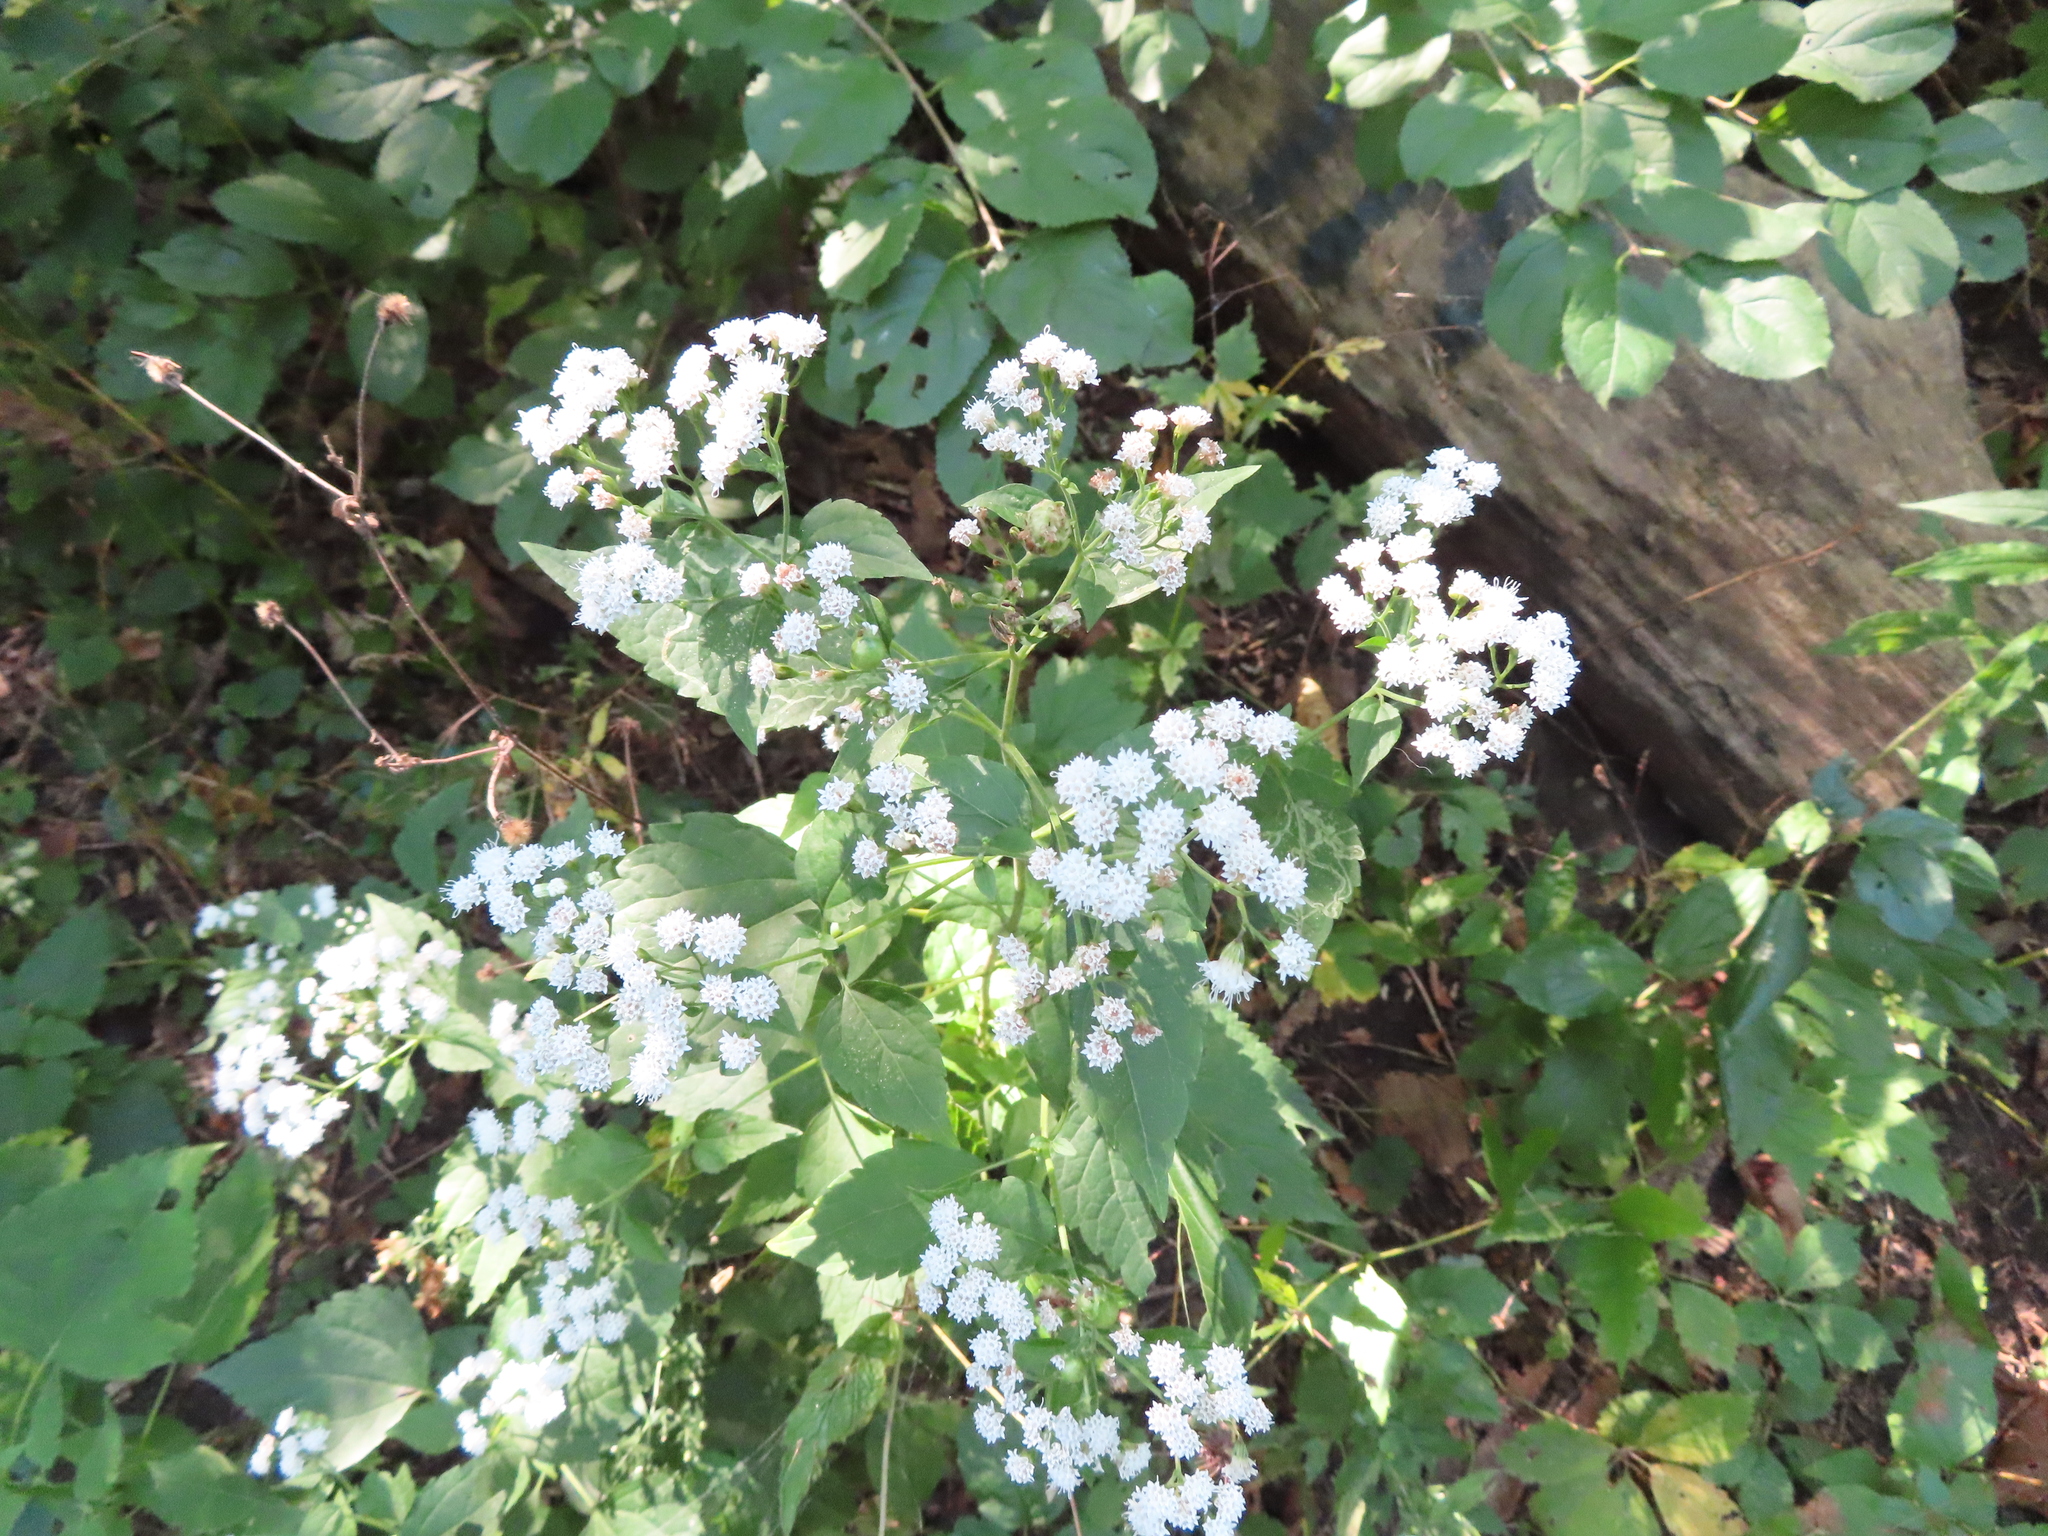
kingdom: Plantae
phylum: Tracheophyta
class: Magnoliopsida
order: Asterales
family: Asteraceae
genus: Ageratina
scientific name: Ageratina altissima
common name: White snakeroot
